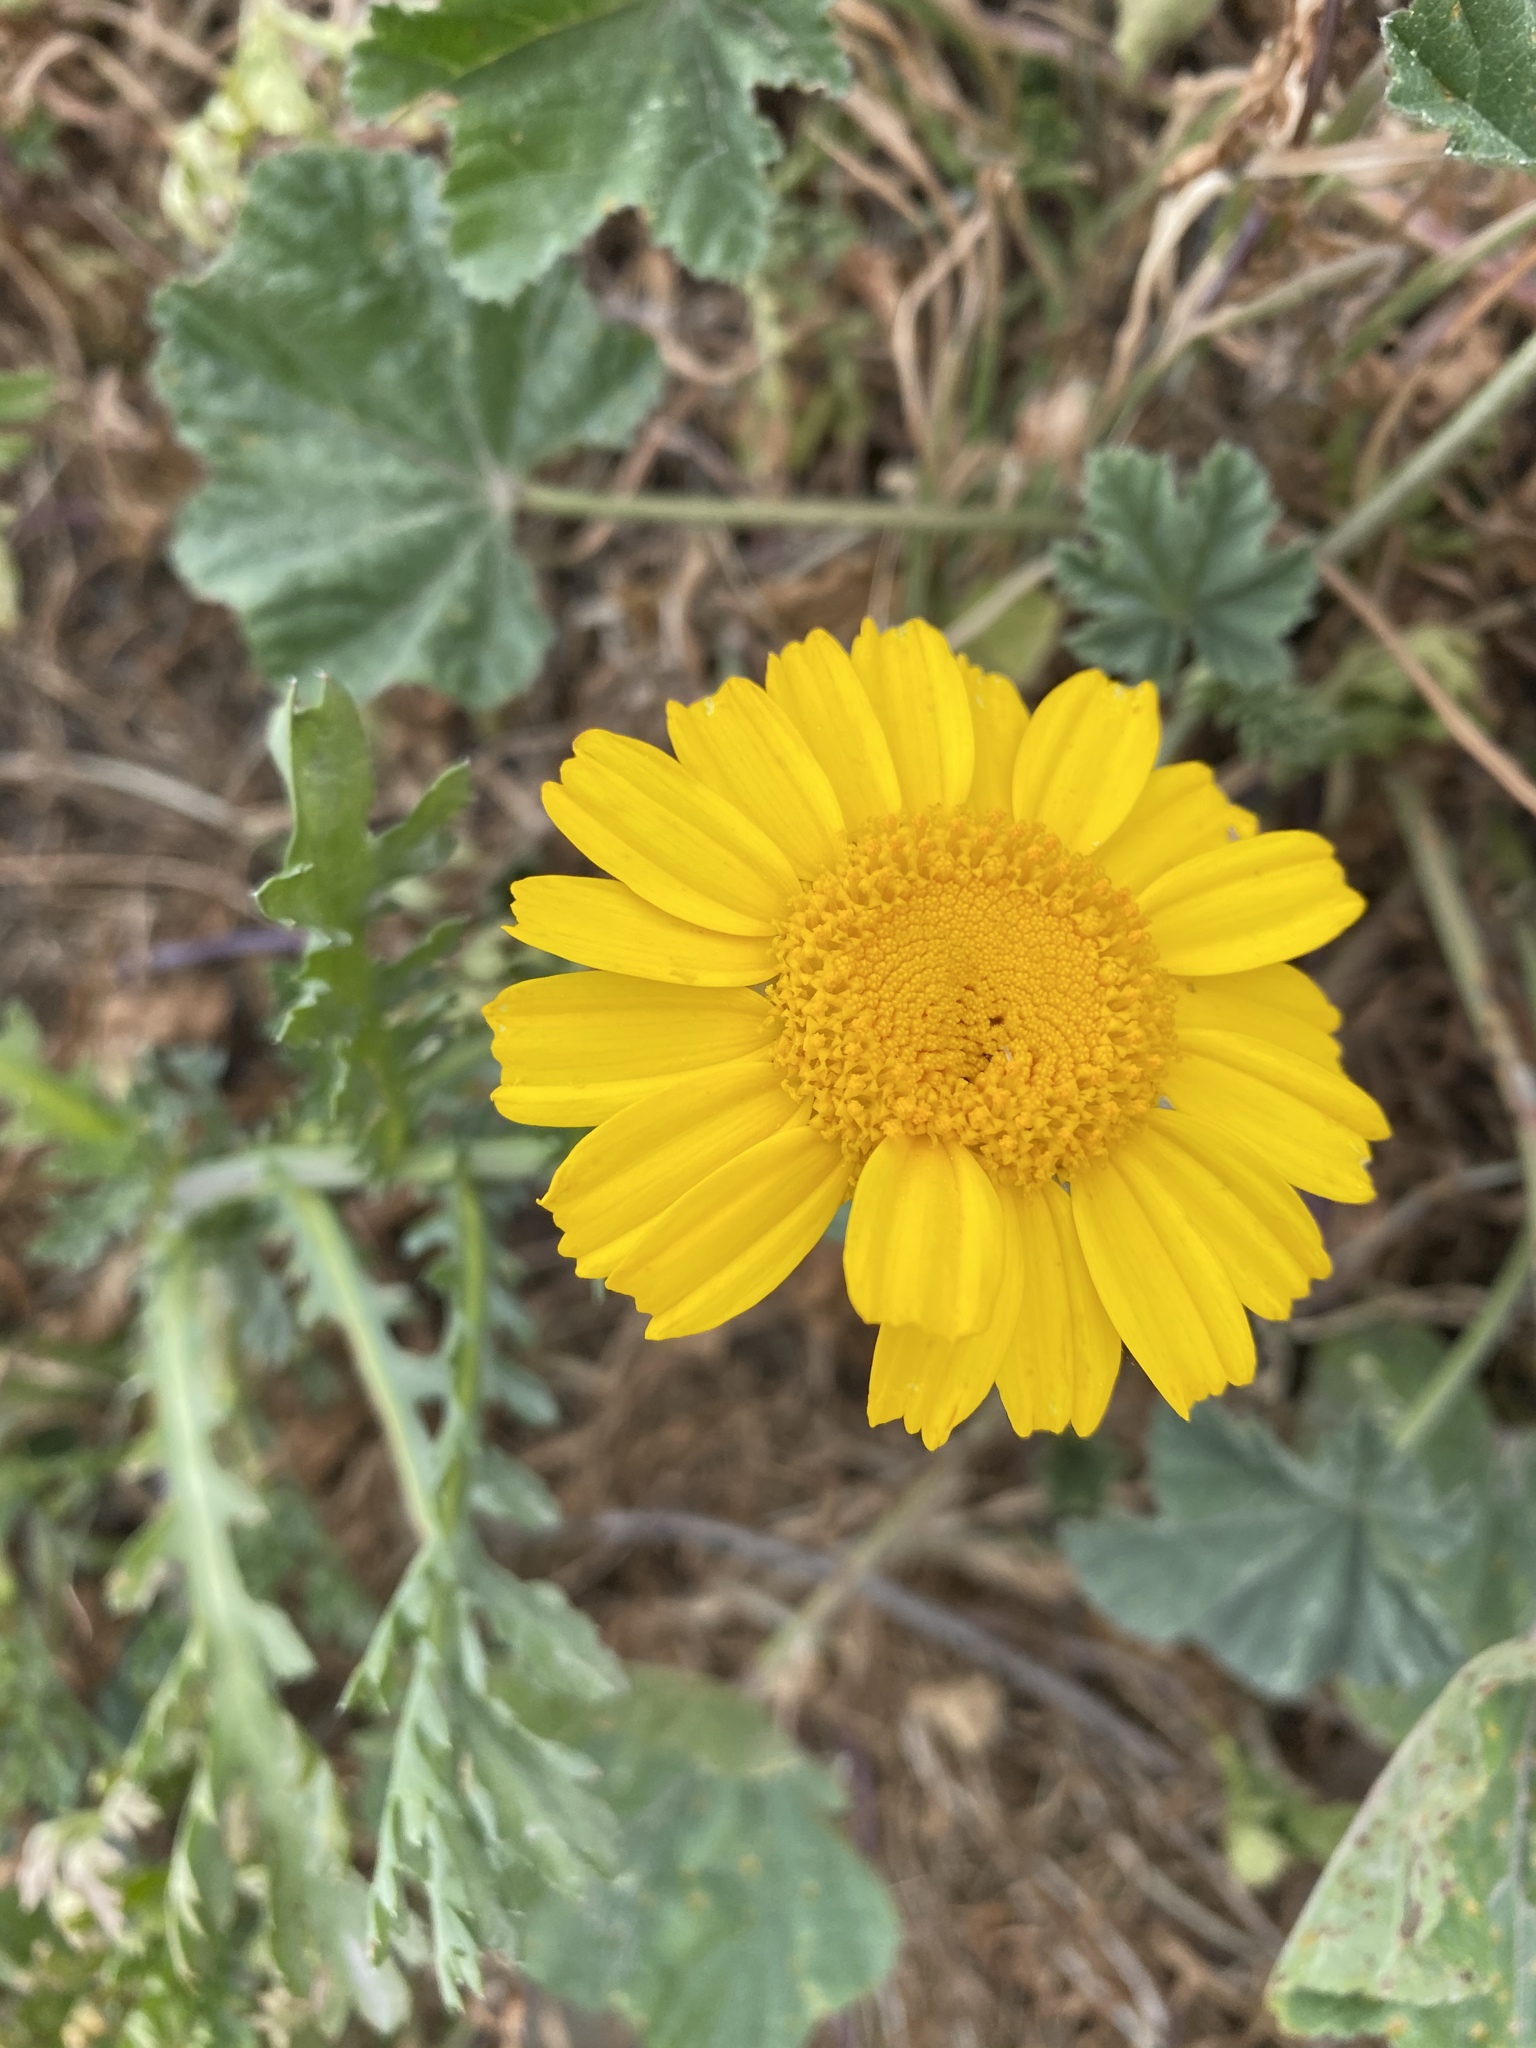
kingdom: Plantae
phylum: Tracheophyta
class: Magnoliopsida
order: Asterales
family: Asteraceae
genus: Glebionis
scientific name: Glebionis coronaria
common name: Crowndaisy
